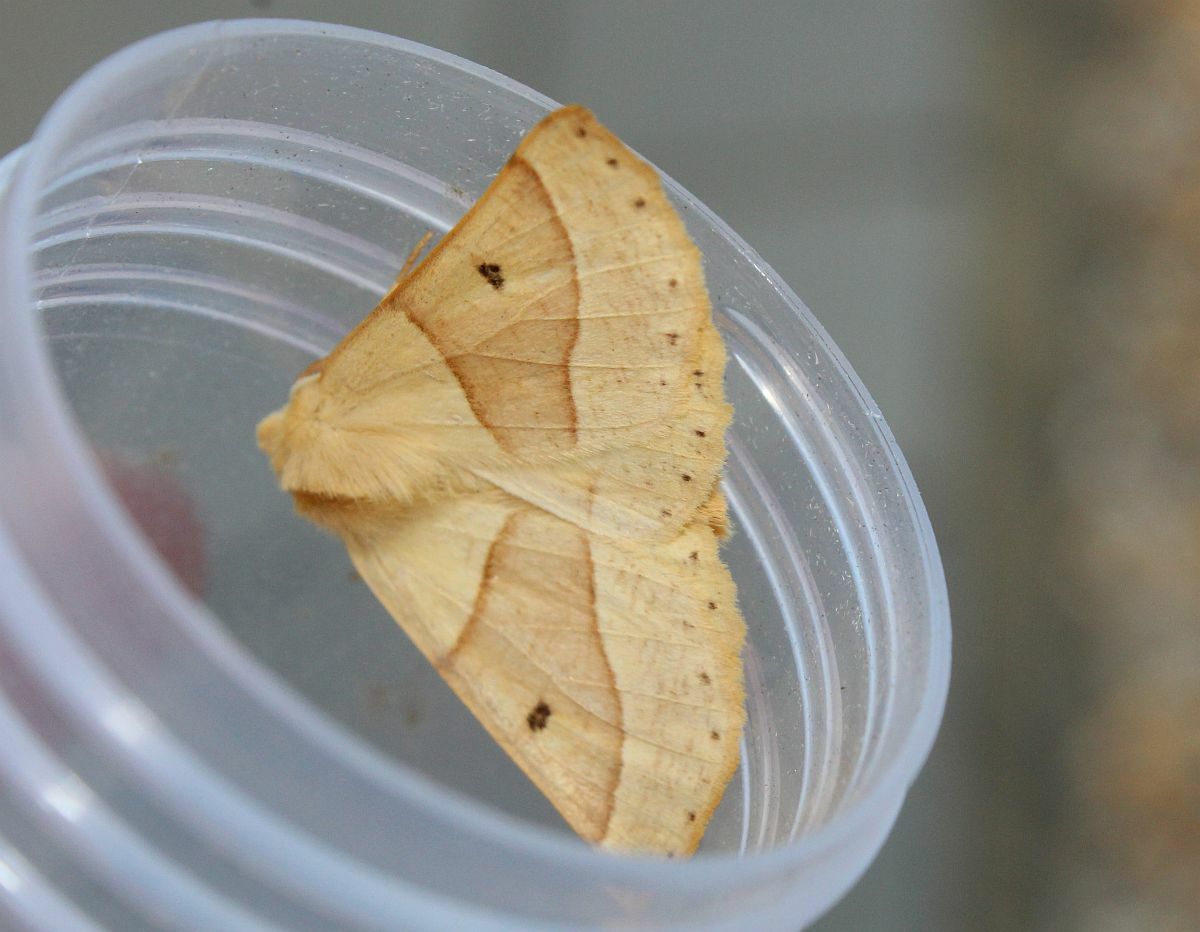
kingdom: Animalia
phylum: Arthropoda
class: Insecta
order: Lepidoptera
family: Geometridae
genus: Crocallis
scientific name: Crocallis elinguaria
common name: Scalloped oak
